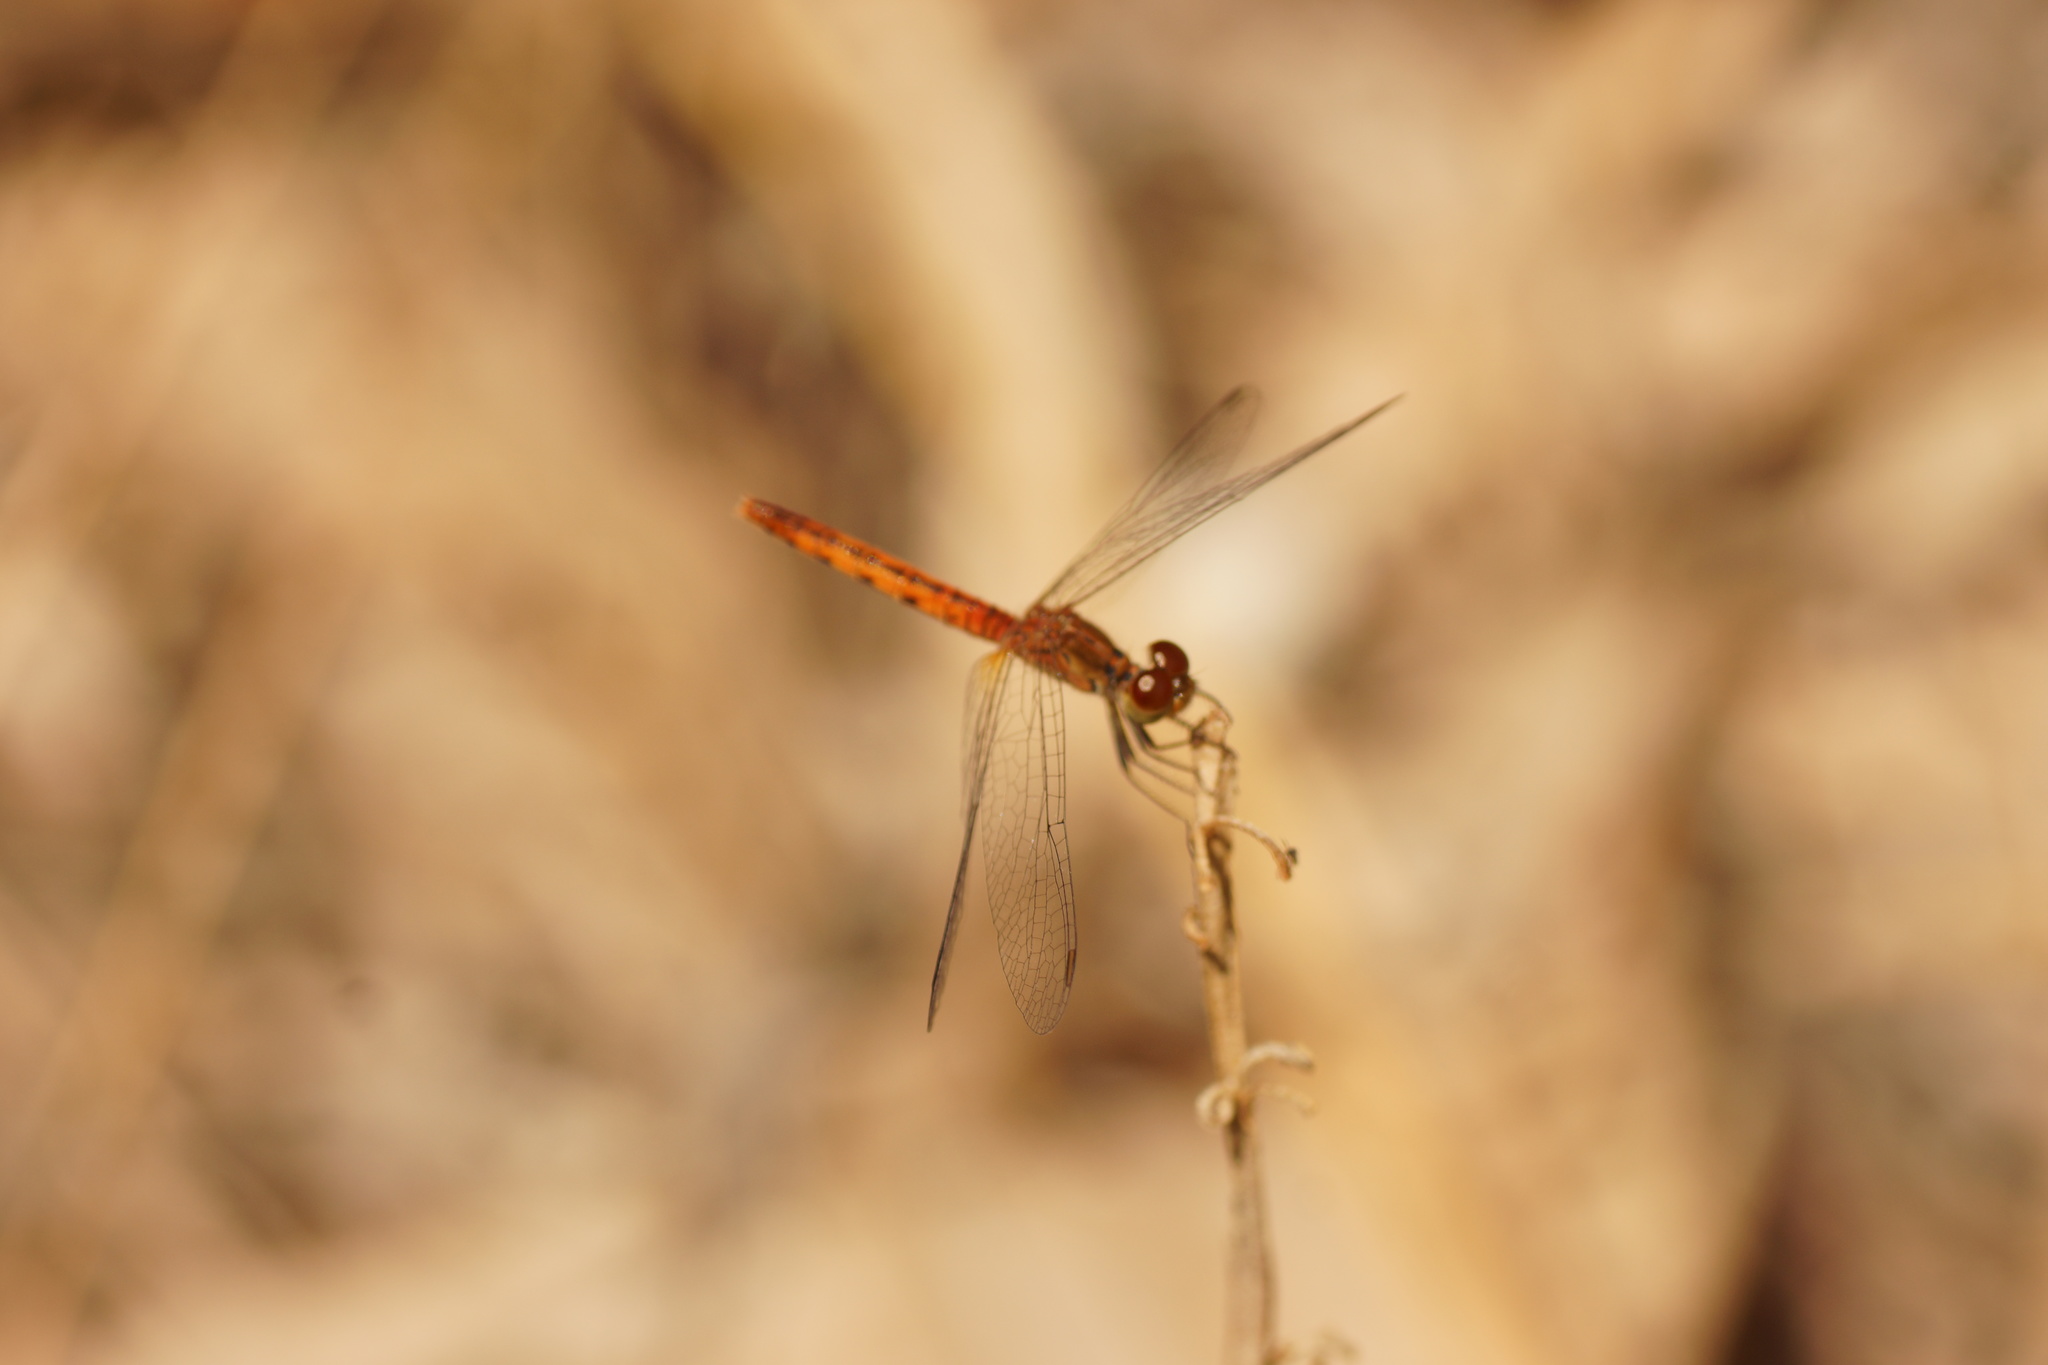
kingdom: Animalia
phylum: Arthropoda
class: Insecta
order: Odonata
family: Libellulidae
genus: Nannodiplax
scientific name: Nannodiplax rubra
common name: Pygmy percher
